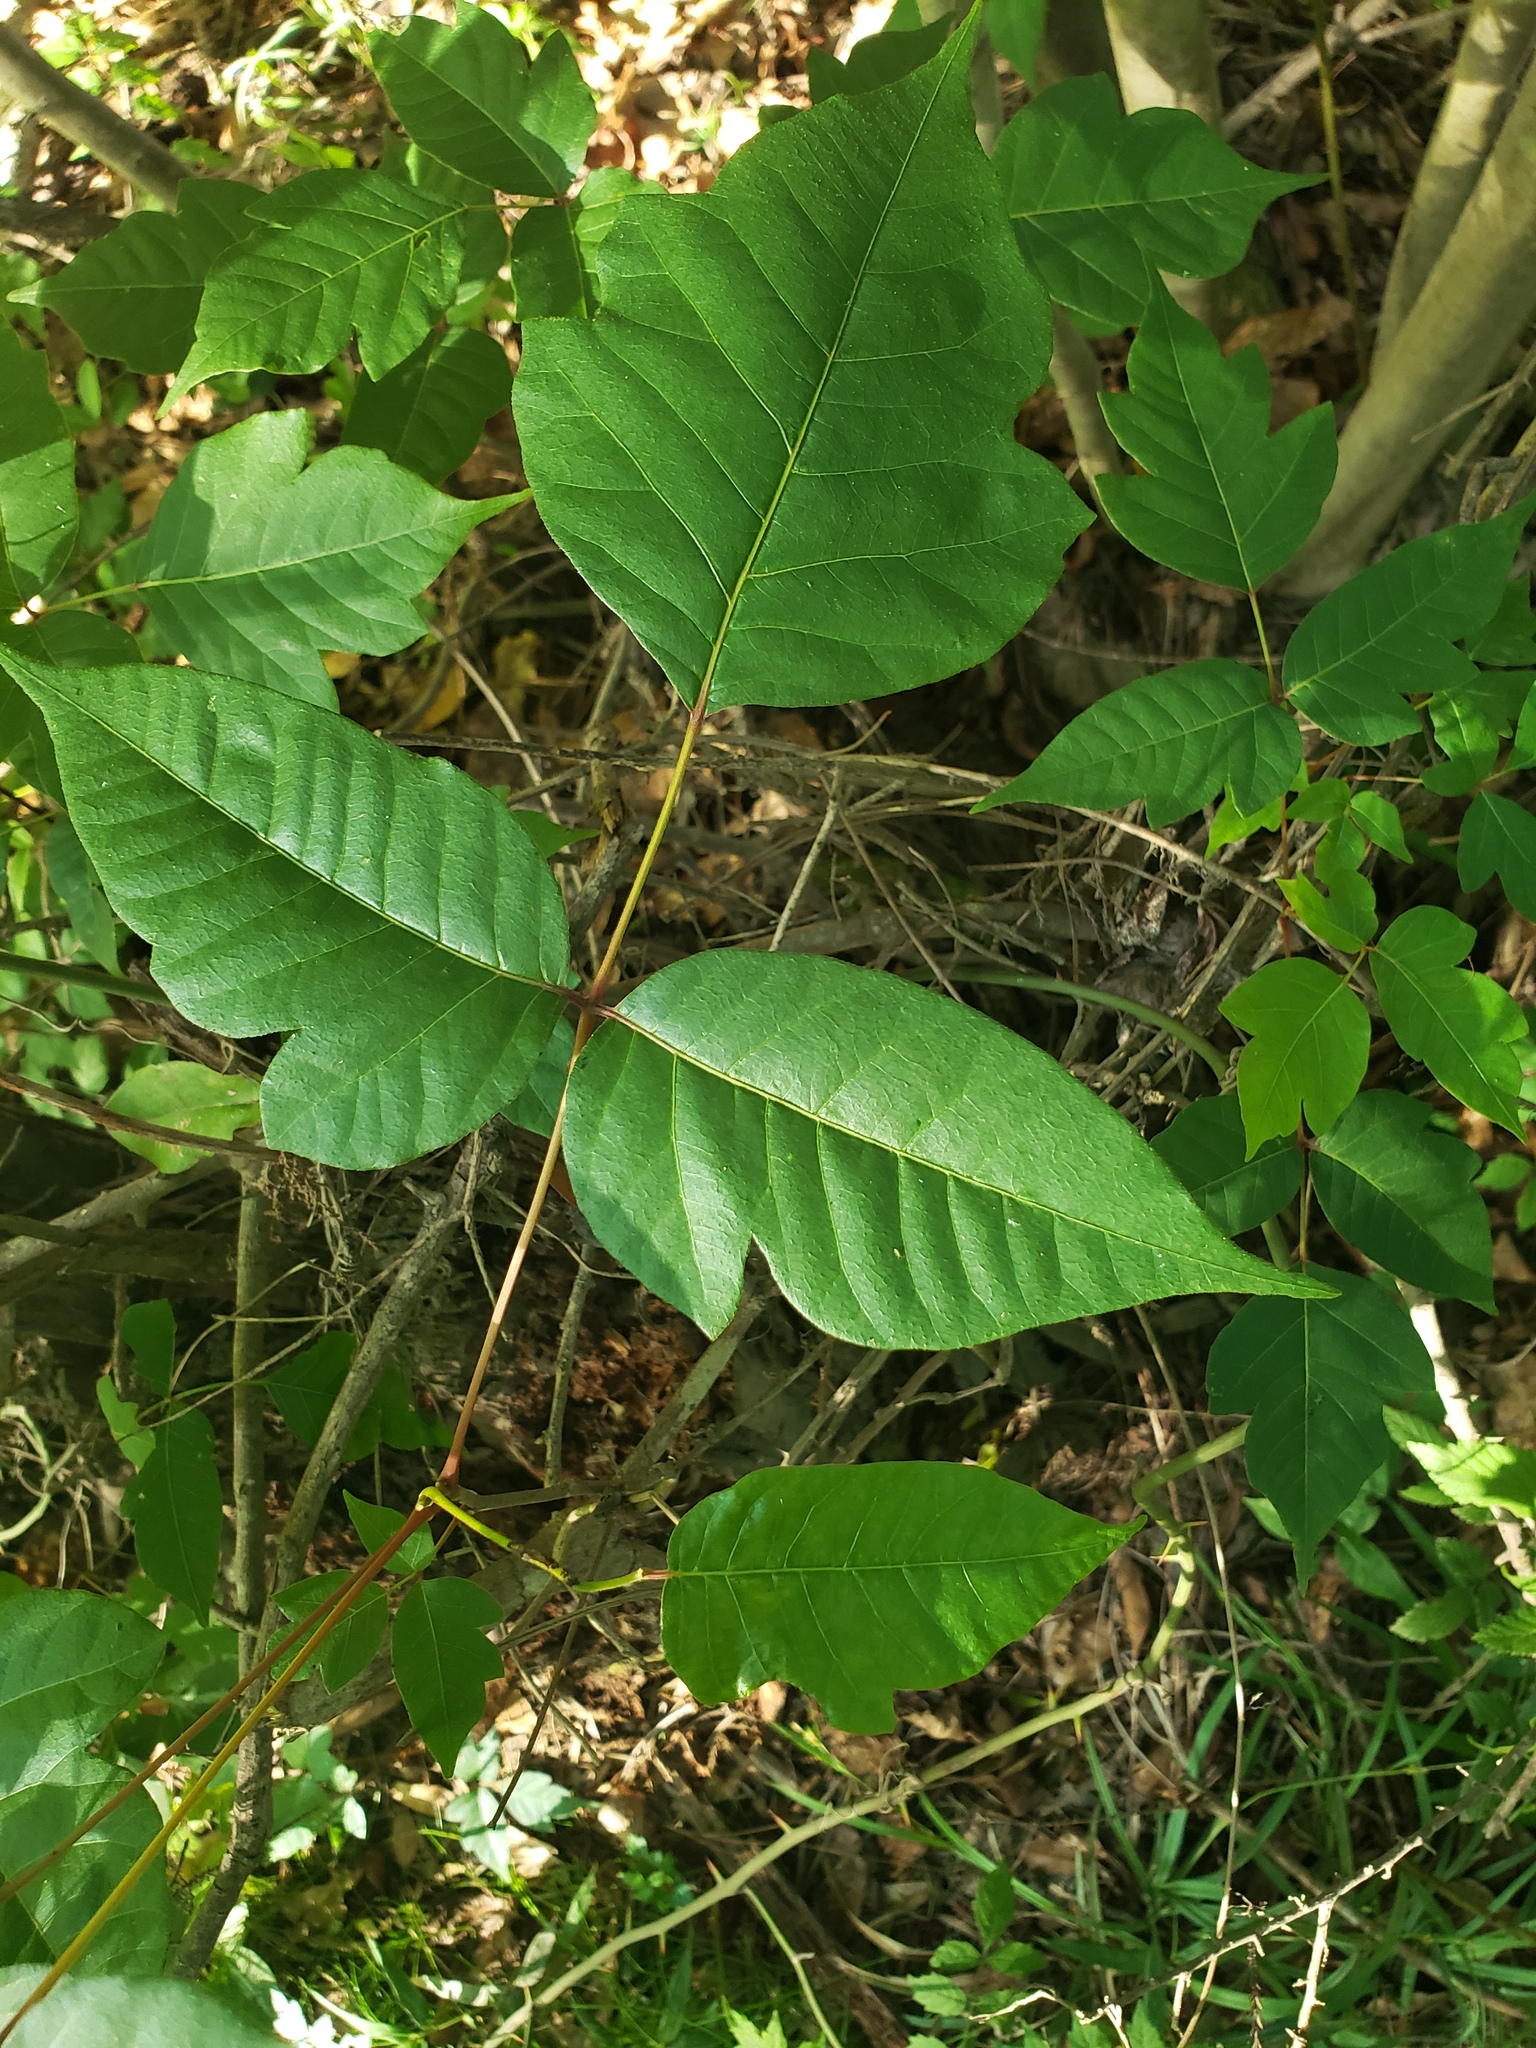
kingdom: Plantae
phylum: Tracheophyta
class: Magnoliopsida
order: Sapindales
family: Anacardiaceae
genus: Toxicodendron
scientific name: Toxicodendron radicans
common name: Poison ivy
